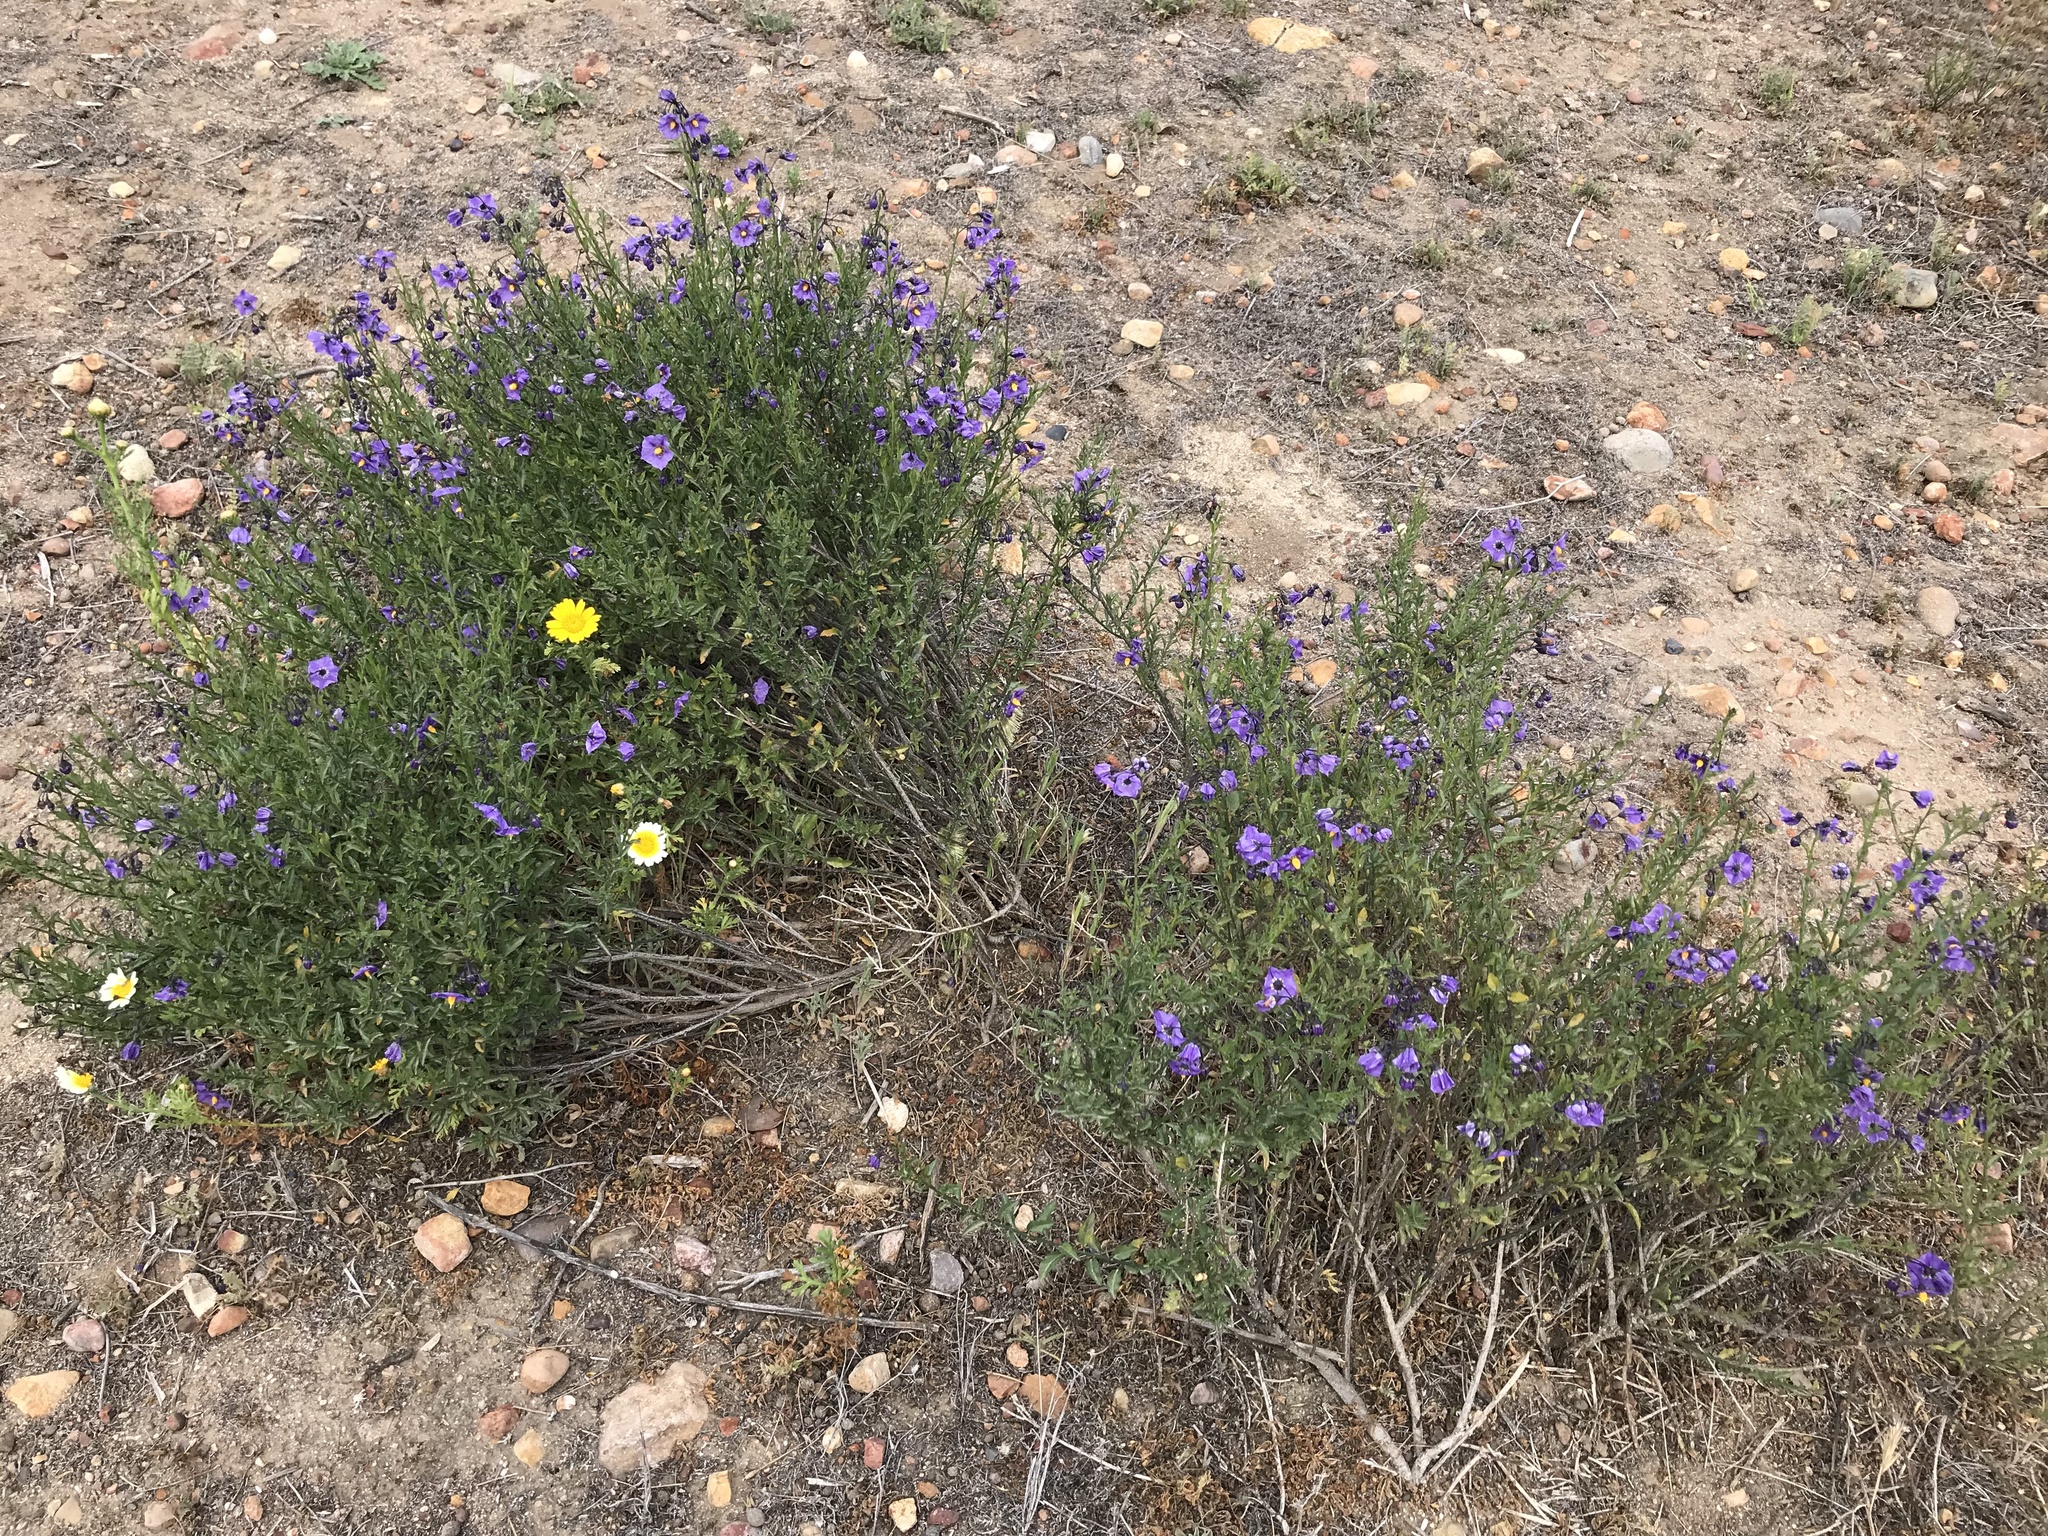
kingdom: Plantae
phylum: Tracheophyta
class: Magnoliopsida
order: Solanales
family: Solanaceae
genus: Solanum
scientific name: Solanum umbelliferum
